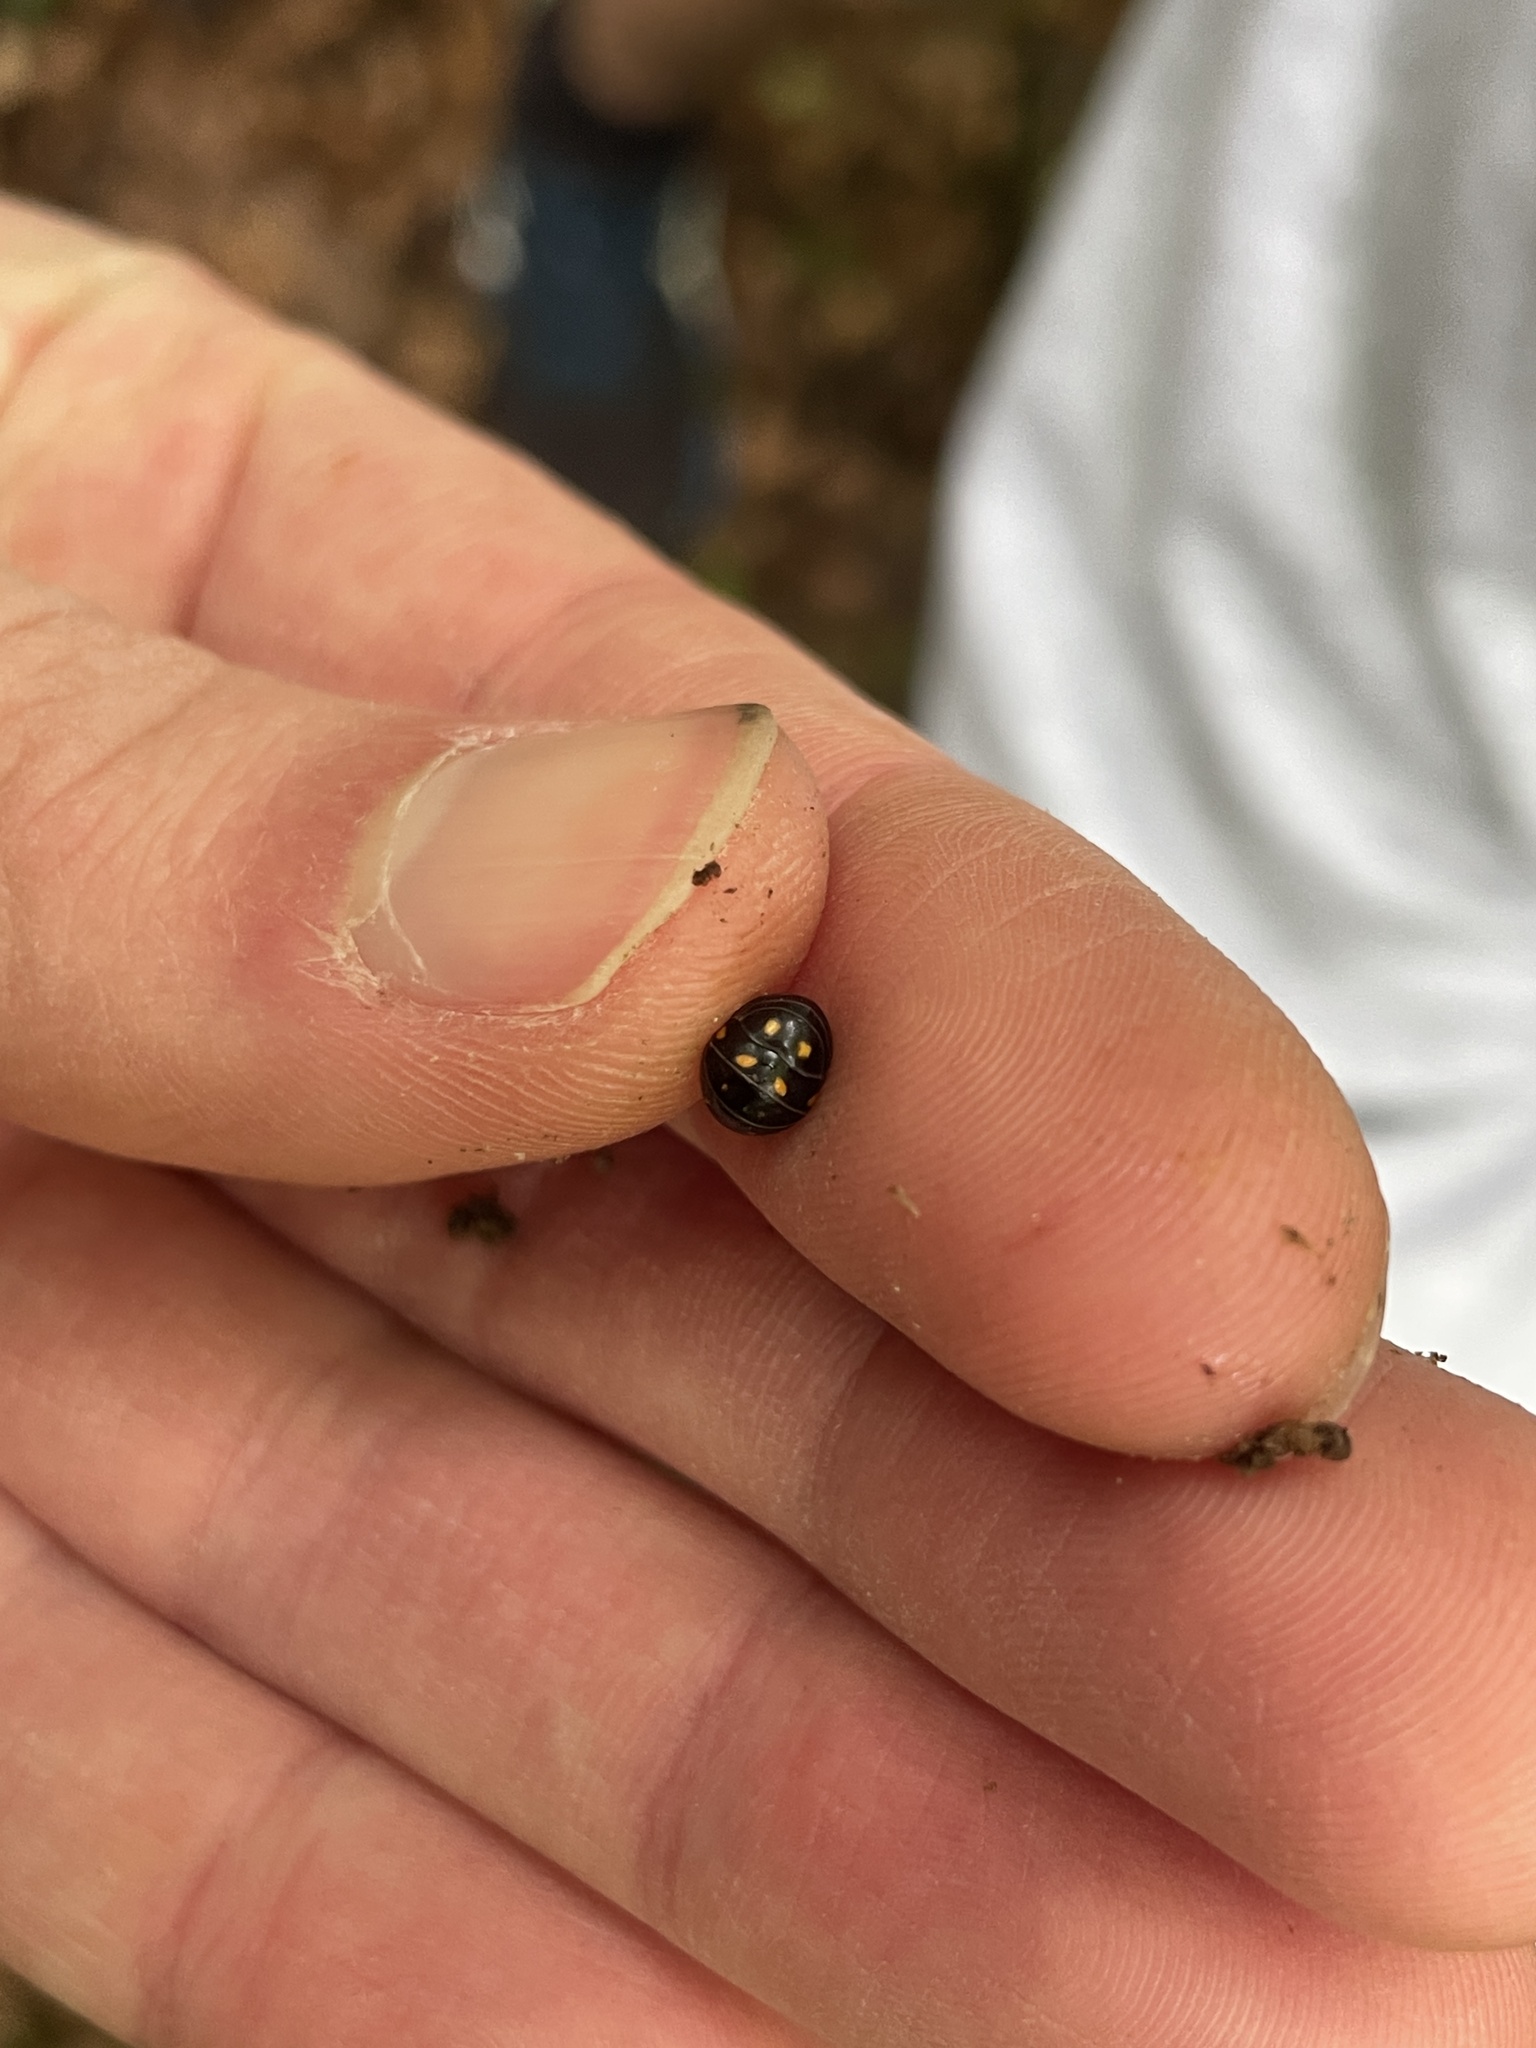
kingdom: Animalia
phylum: Arthropoda
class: Diplopoda
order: Glomerida
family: Glomeridae
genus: Glomeris
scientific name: Glomeris pustulata
